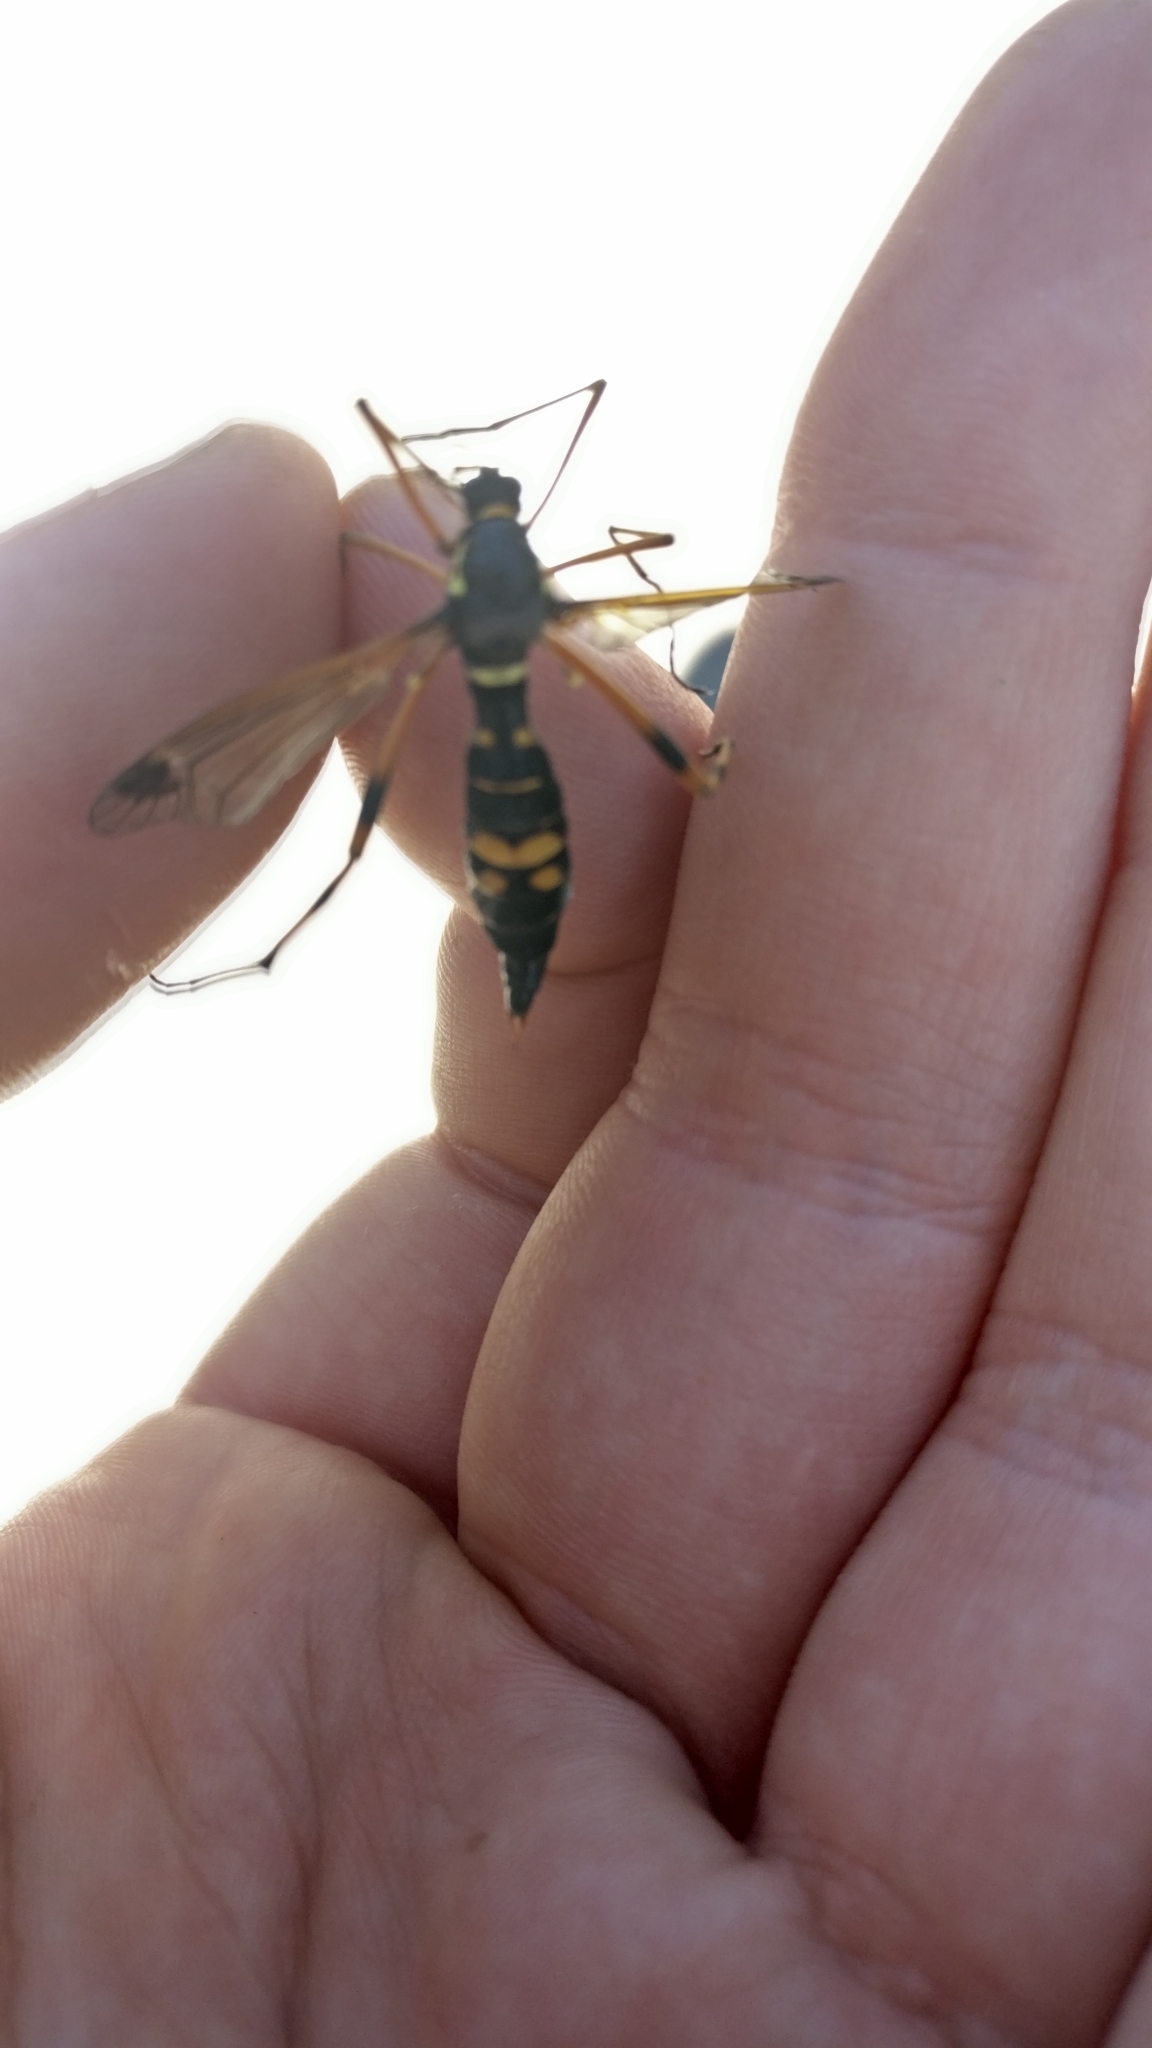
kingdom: Animalia
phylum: Arthropoda
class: Insecta
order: Diptera
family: Tipulidae
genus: Ctenophora
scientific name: Ctenophora festiva
